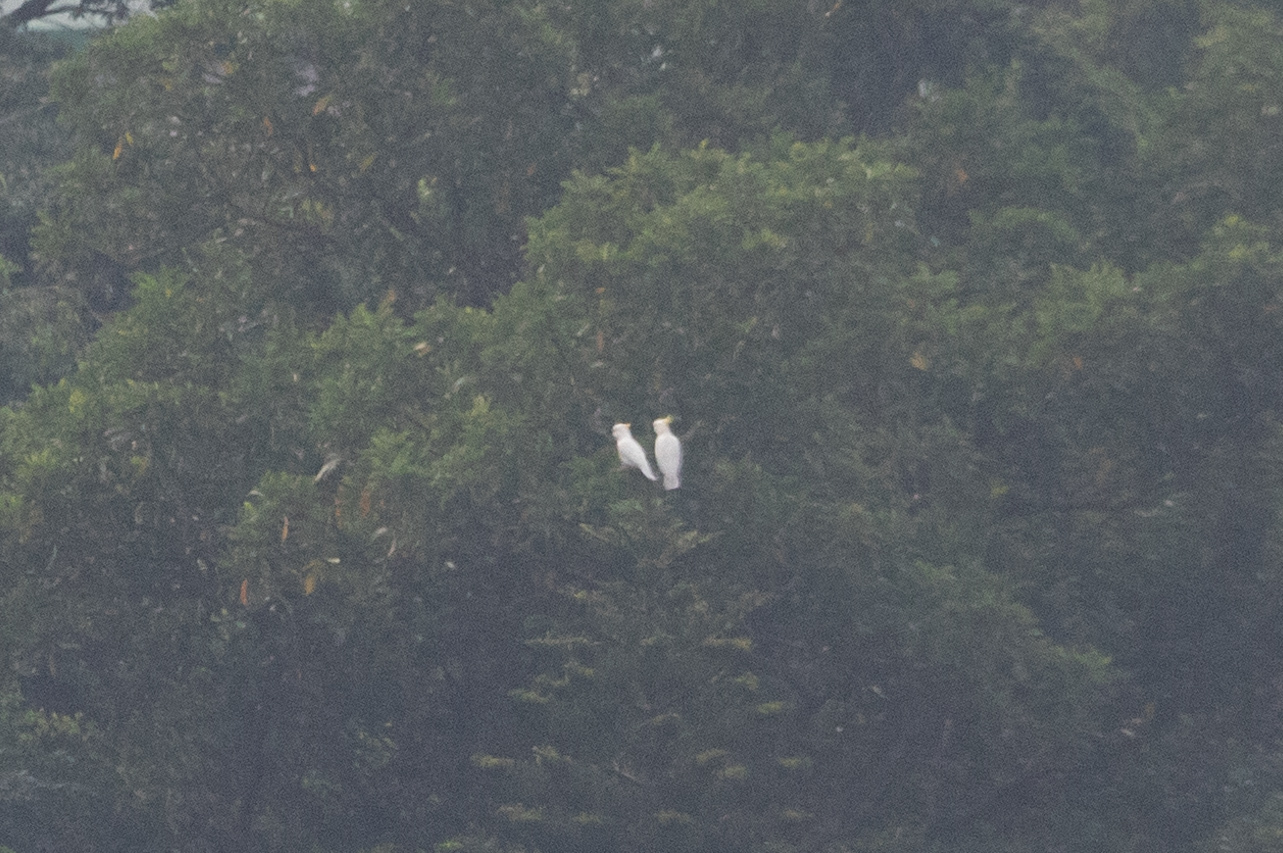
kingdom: Animalia
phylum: Chordata
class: Aves
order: Psittaciformes
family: Psittacidae
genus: Cacatua
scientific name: Cacatua sulphurea
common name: Yellow-crested cockatoo
